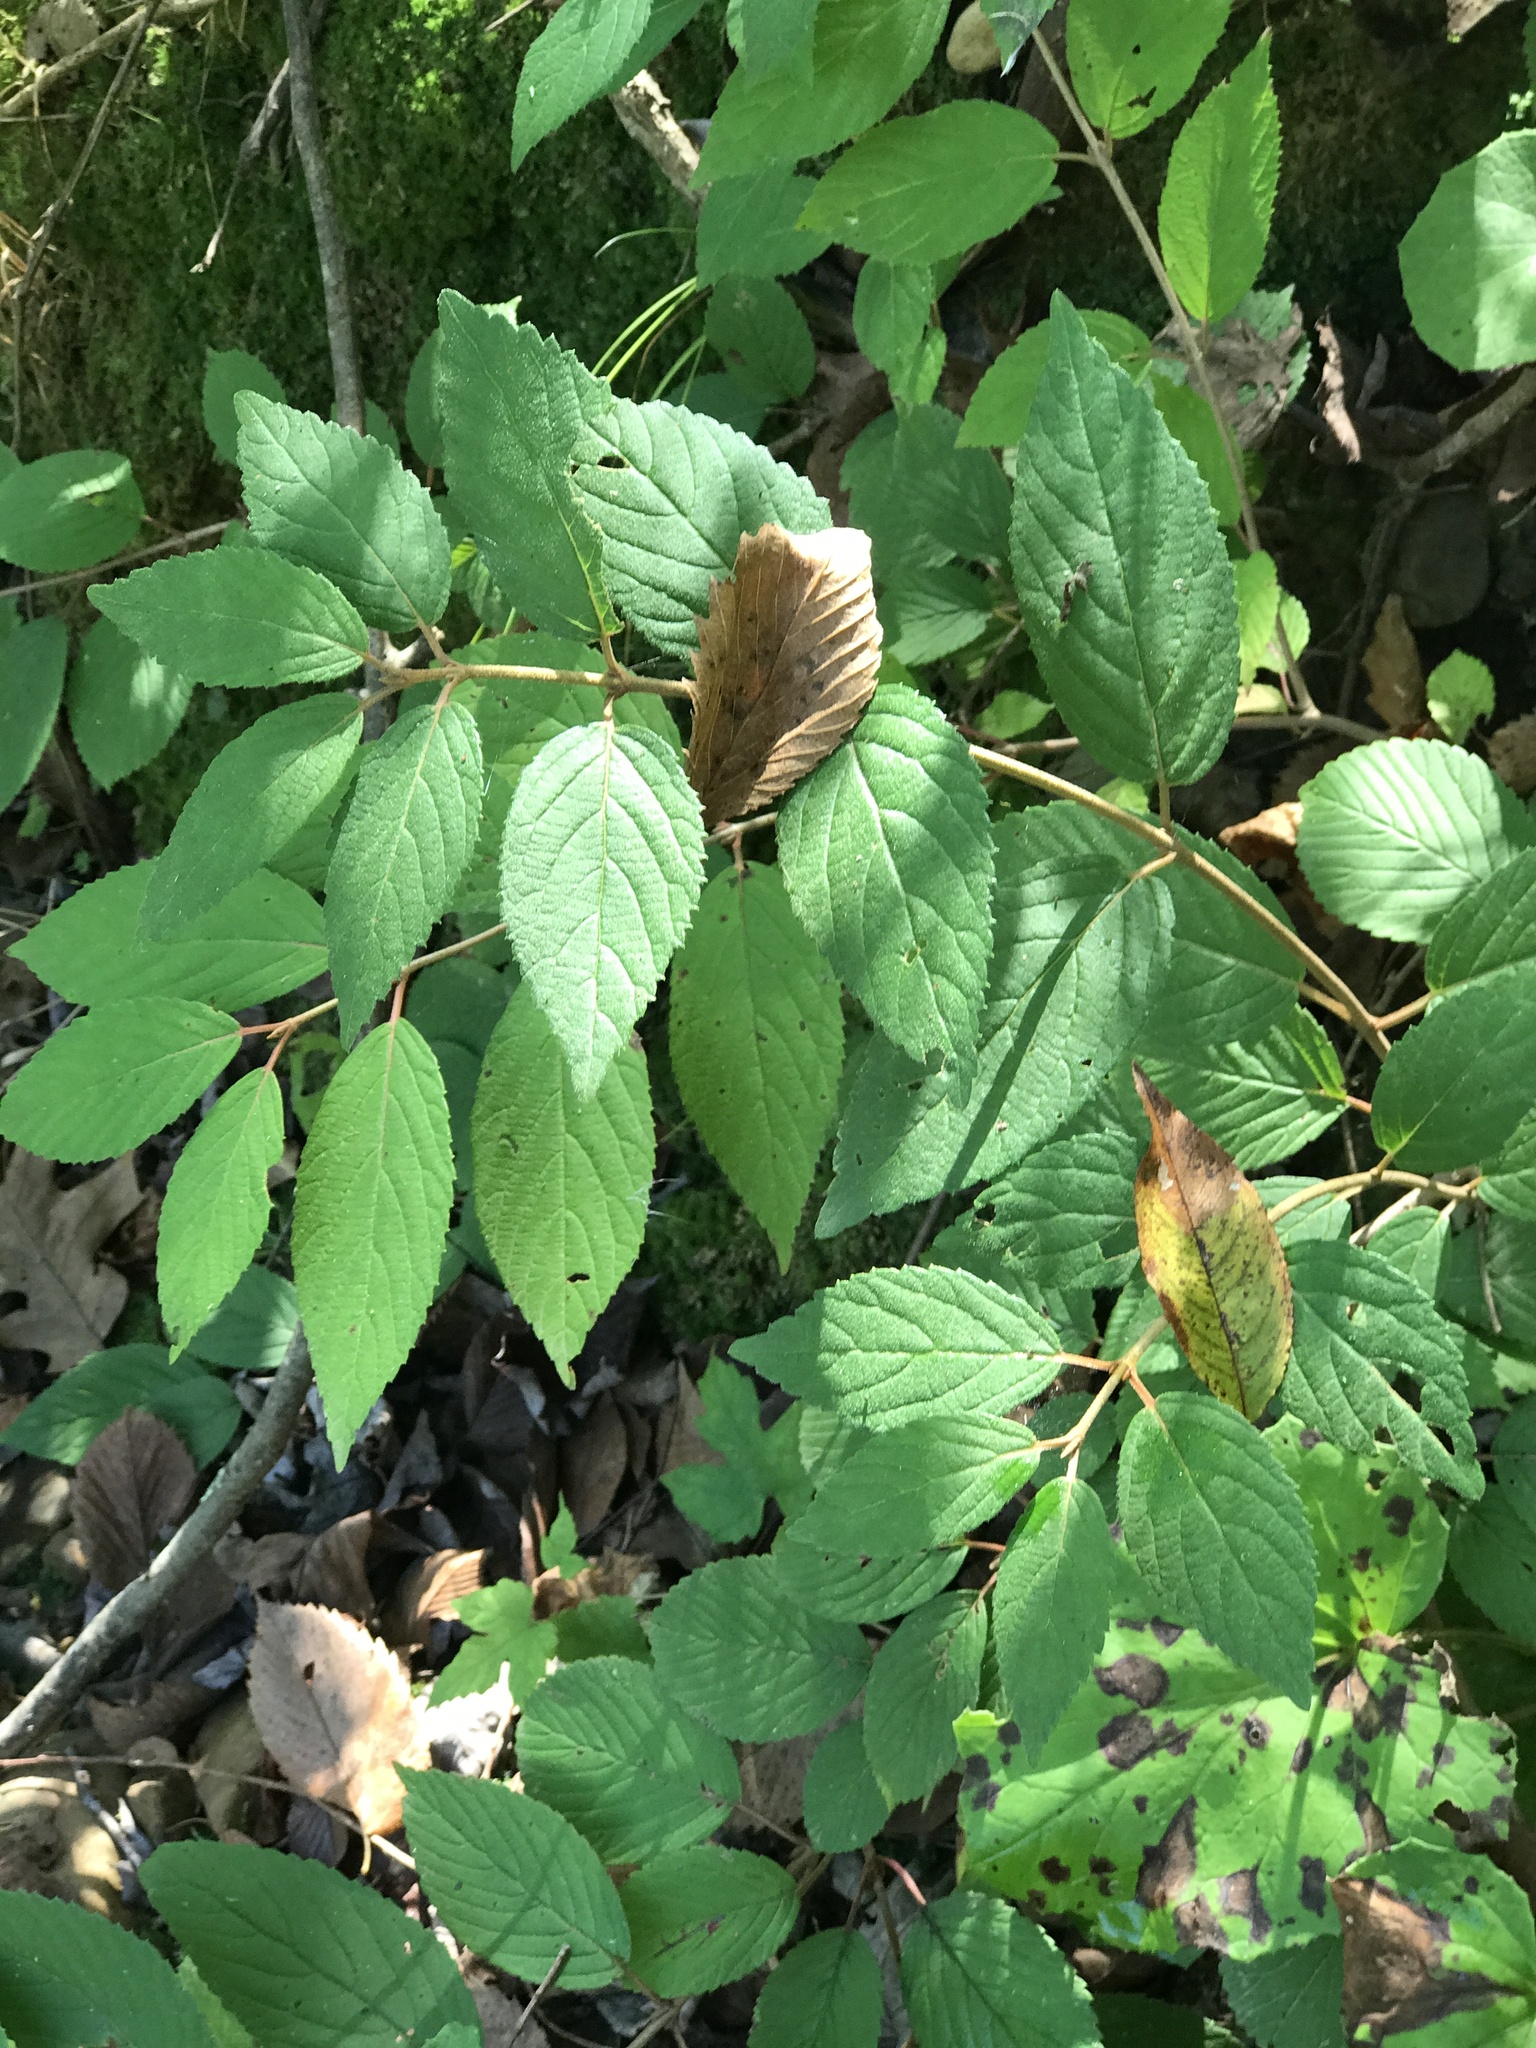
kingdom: Plantae
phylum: Tracheophyta
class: Magnoliopsida
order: Dipsacales
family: Viburnaceae
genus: Viburnum
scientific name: Viburnum plicatum
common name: Japanese snowball
